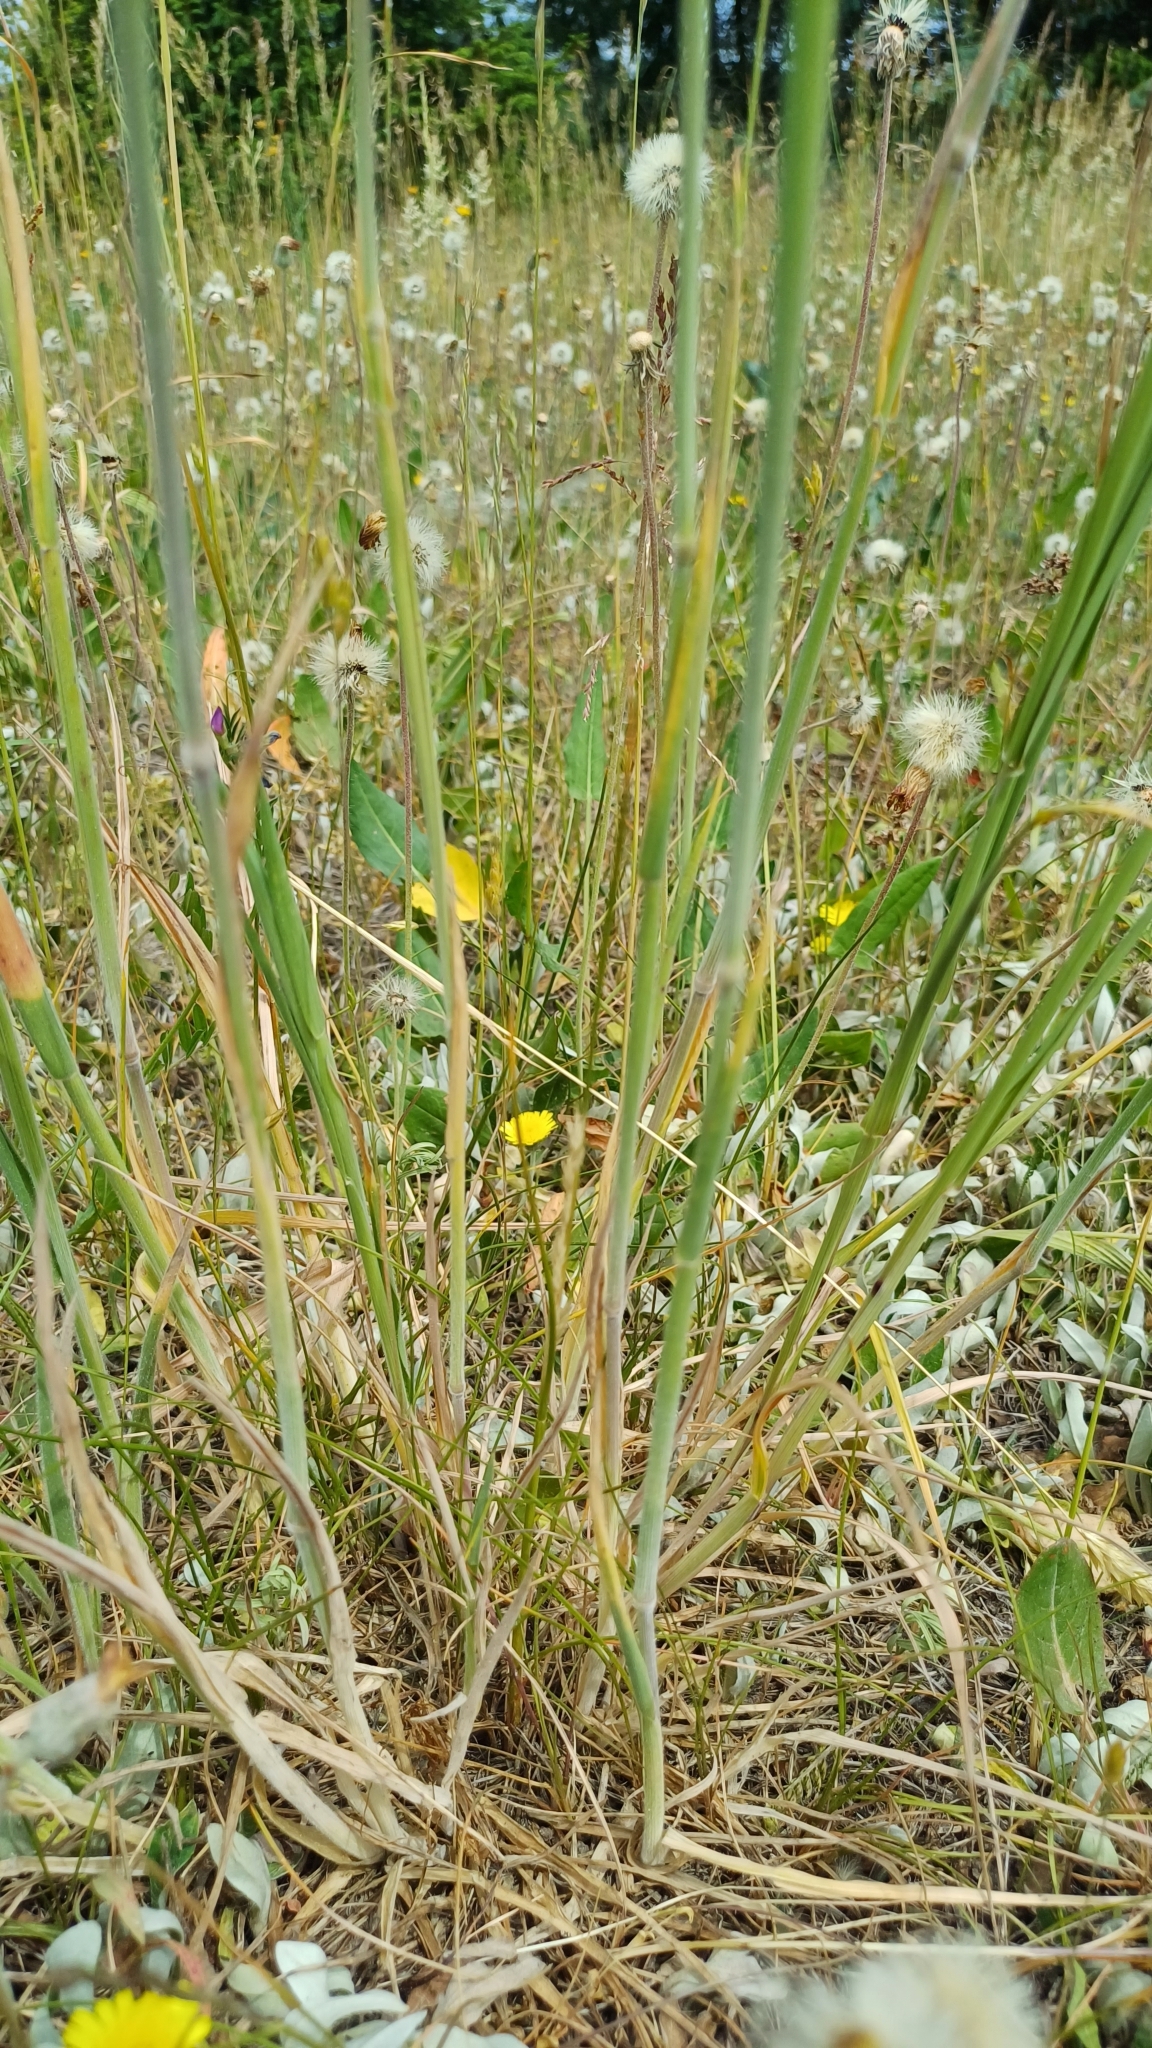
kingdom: Plantae
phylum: Tracheophyta
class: Liliopsida
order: Poales
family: Poaceae
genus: Holcus
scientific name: Holcus lanatus
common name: Yorkshire-fog
